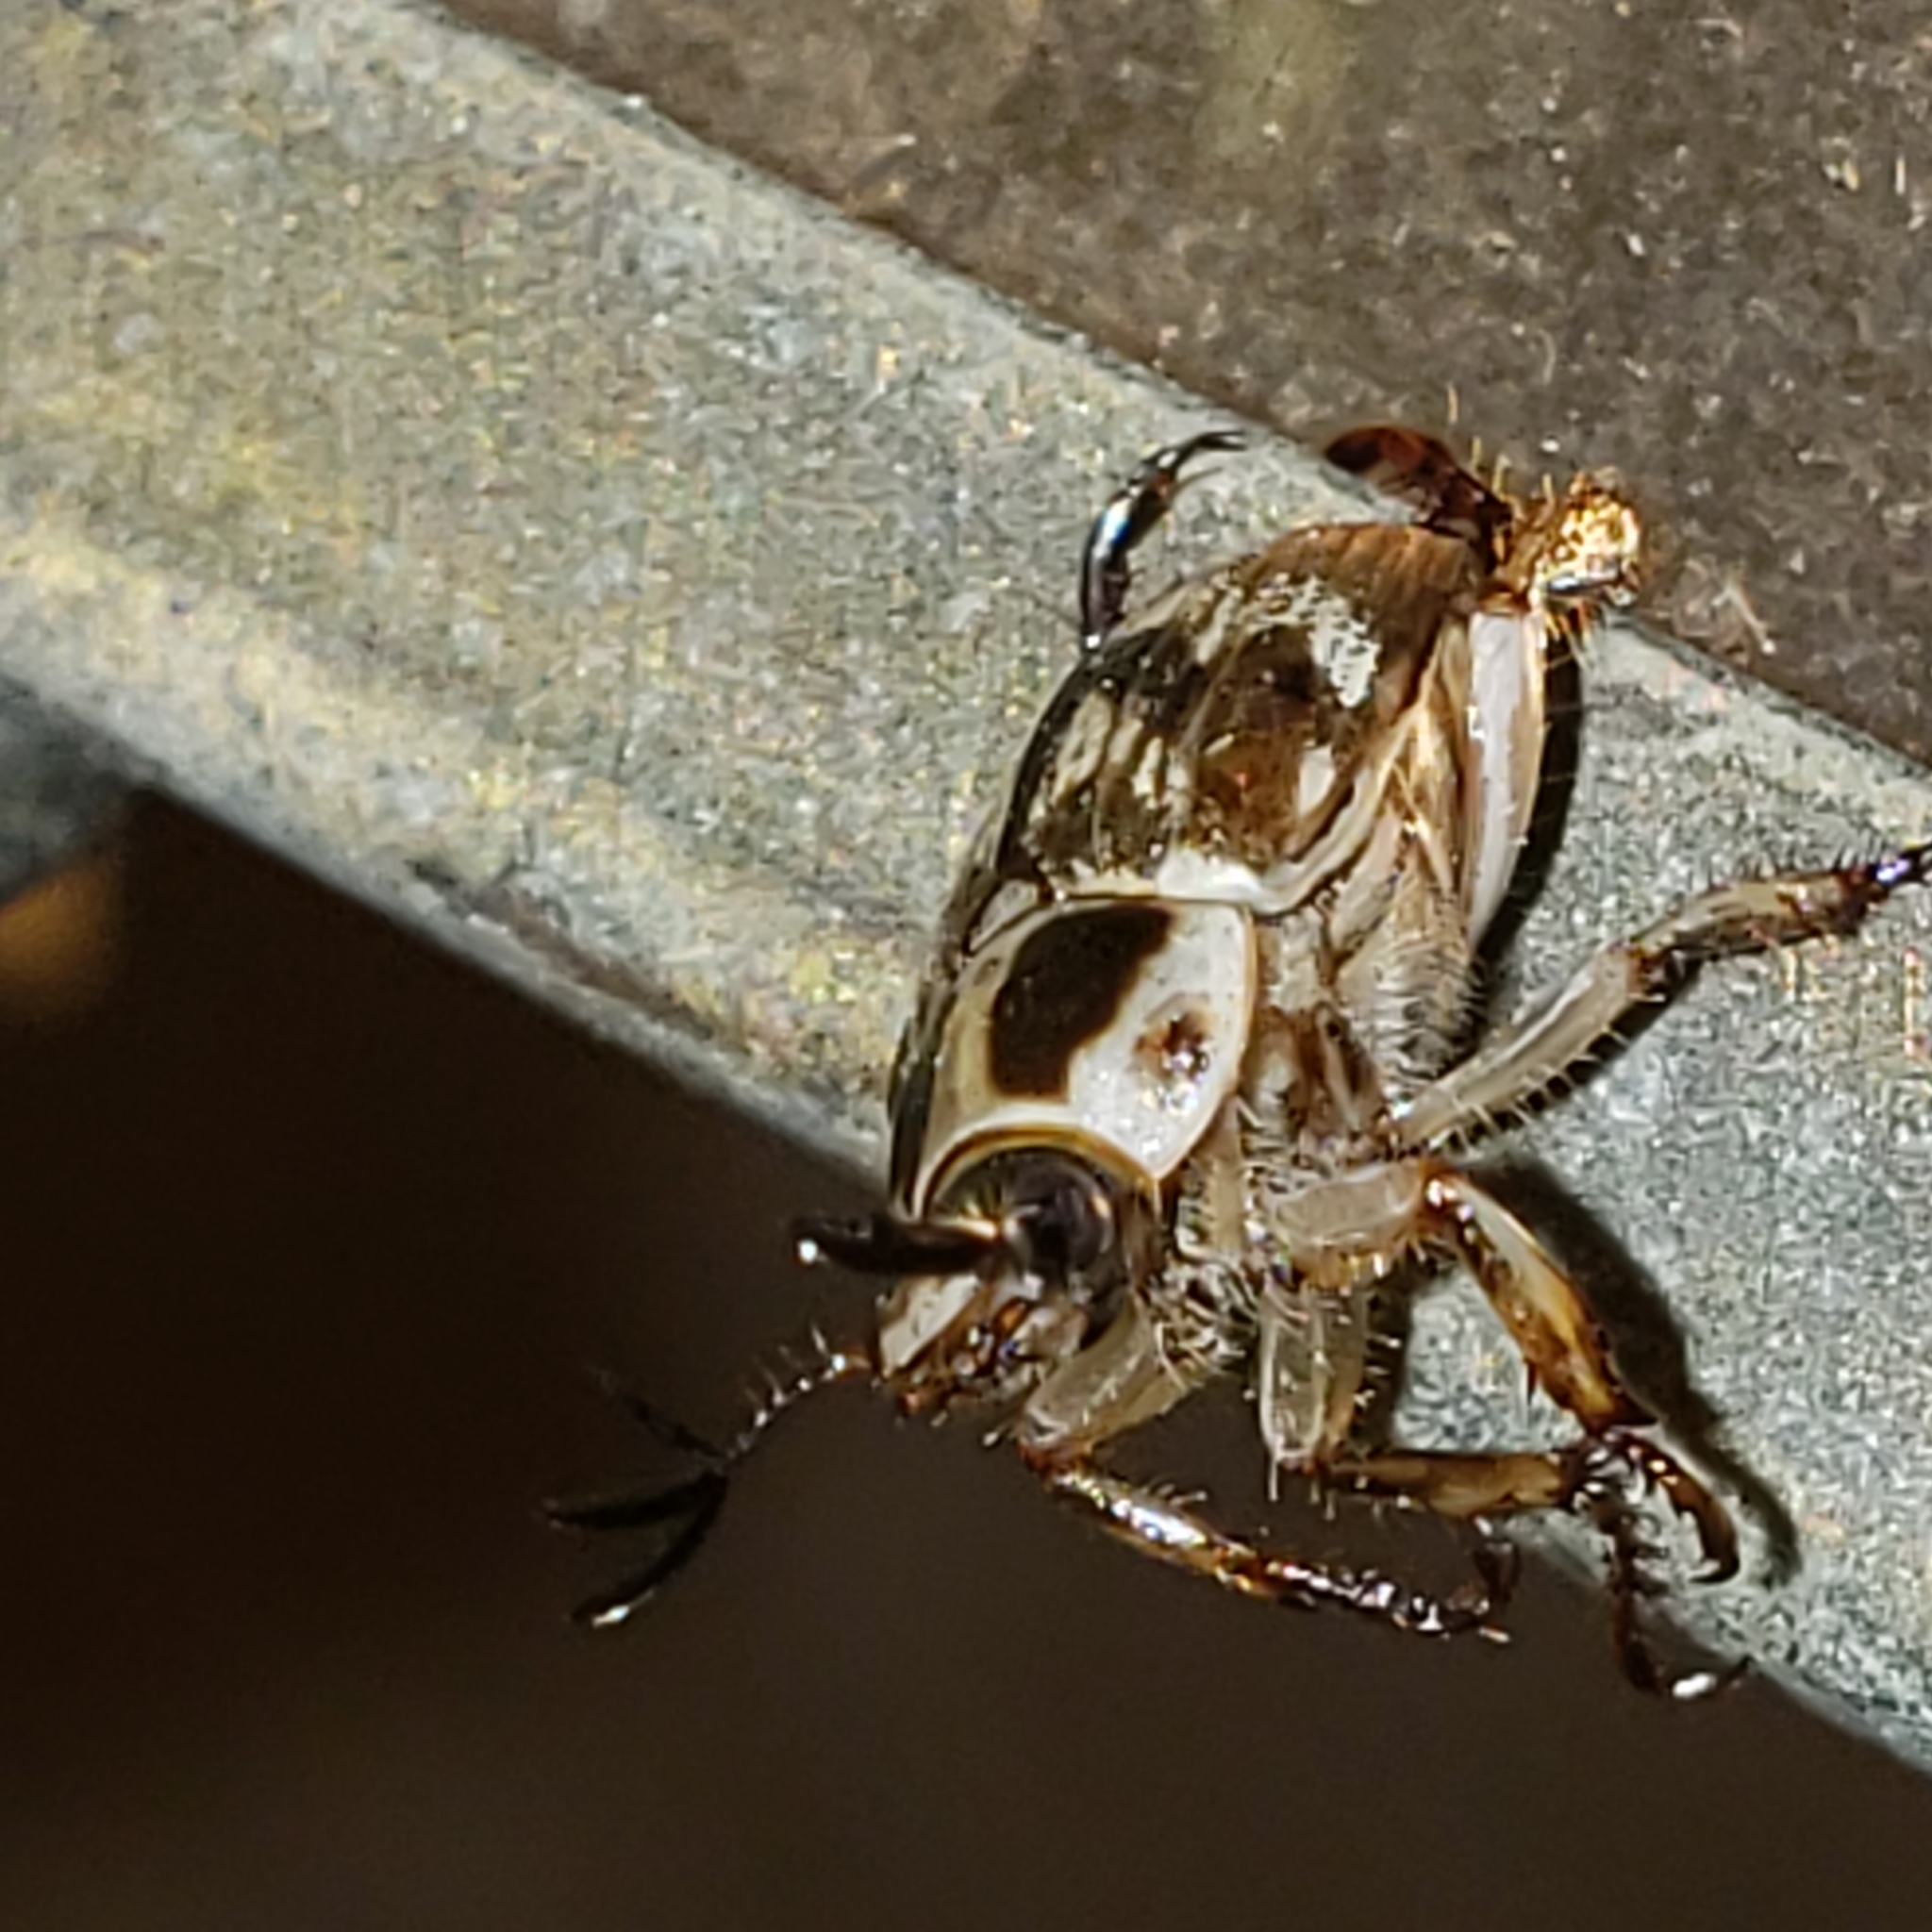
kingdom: Animalia
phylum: Arthropoda
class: Insecta
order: Coleoptera
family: Scarabaeidae
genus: Exomala
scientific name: Exomala orientalis
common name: Oriental beetle
